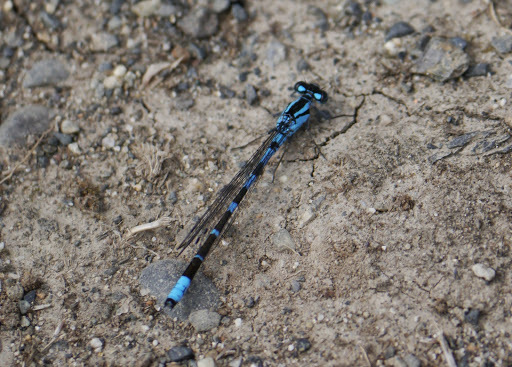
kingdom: Animalia
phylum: Arthropoda
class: Insecta
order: Odonata
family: Coenagrionidae
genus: Enallagma
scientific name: Enallagma annexum
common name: Northern bluet
